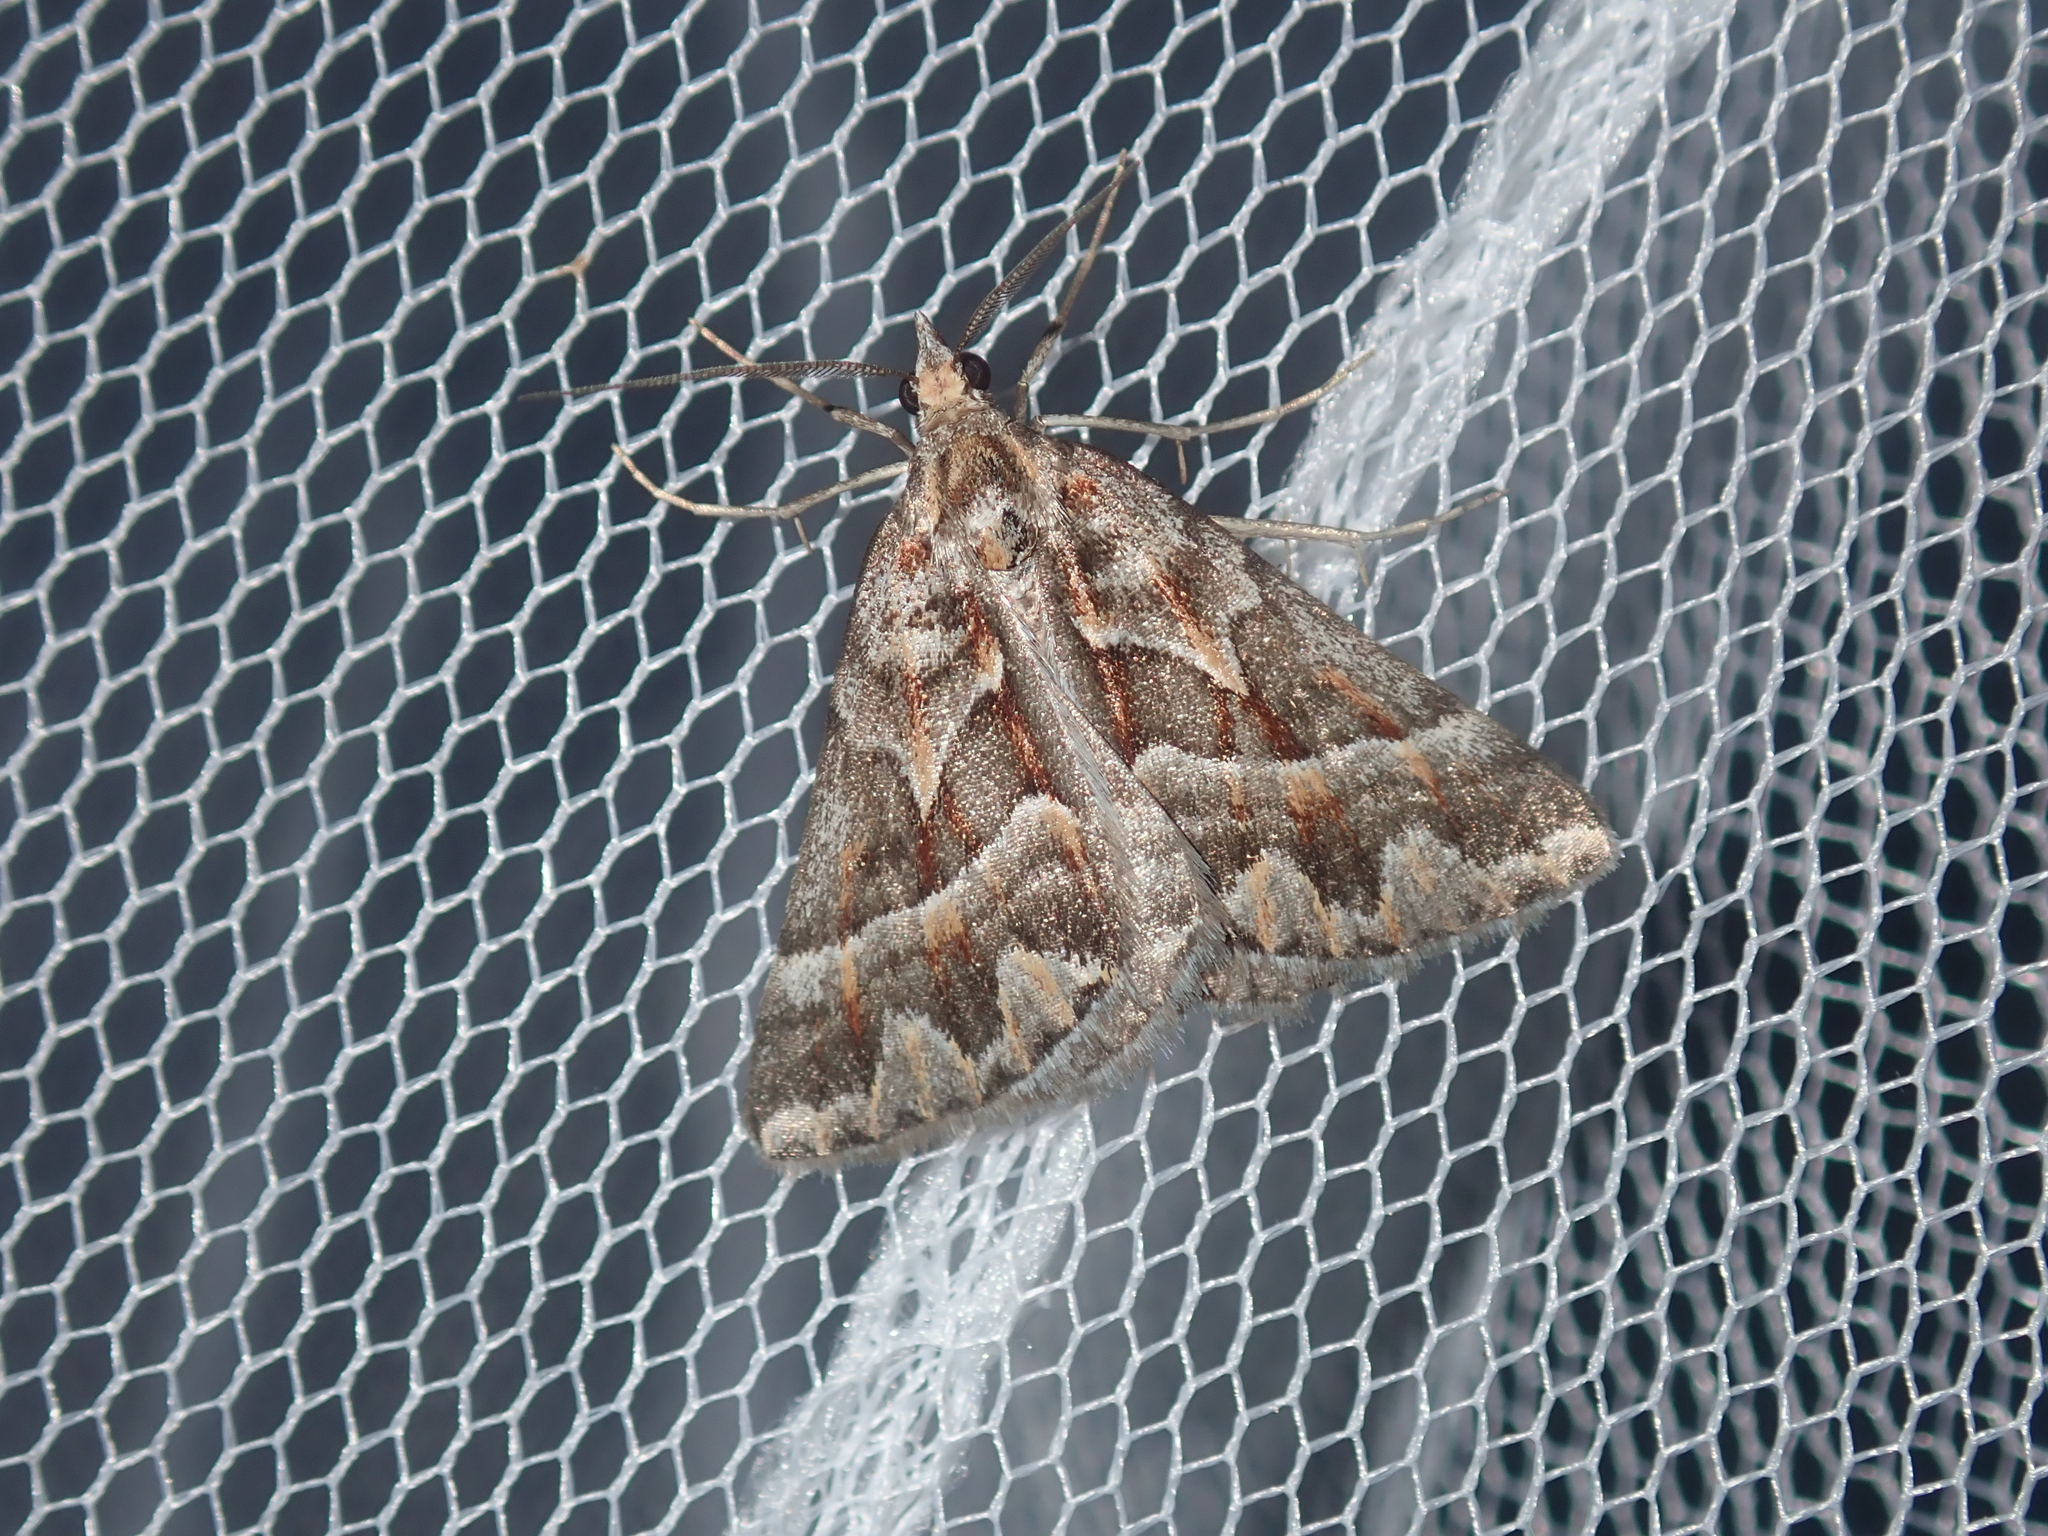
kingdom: Animalia
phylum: Arthropoda
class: Insecta
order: Lepidoptera
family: Geometridae
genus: Dichromodes
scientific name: Dichromodes poecilotis
